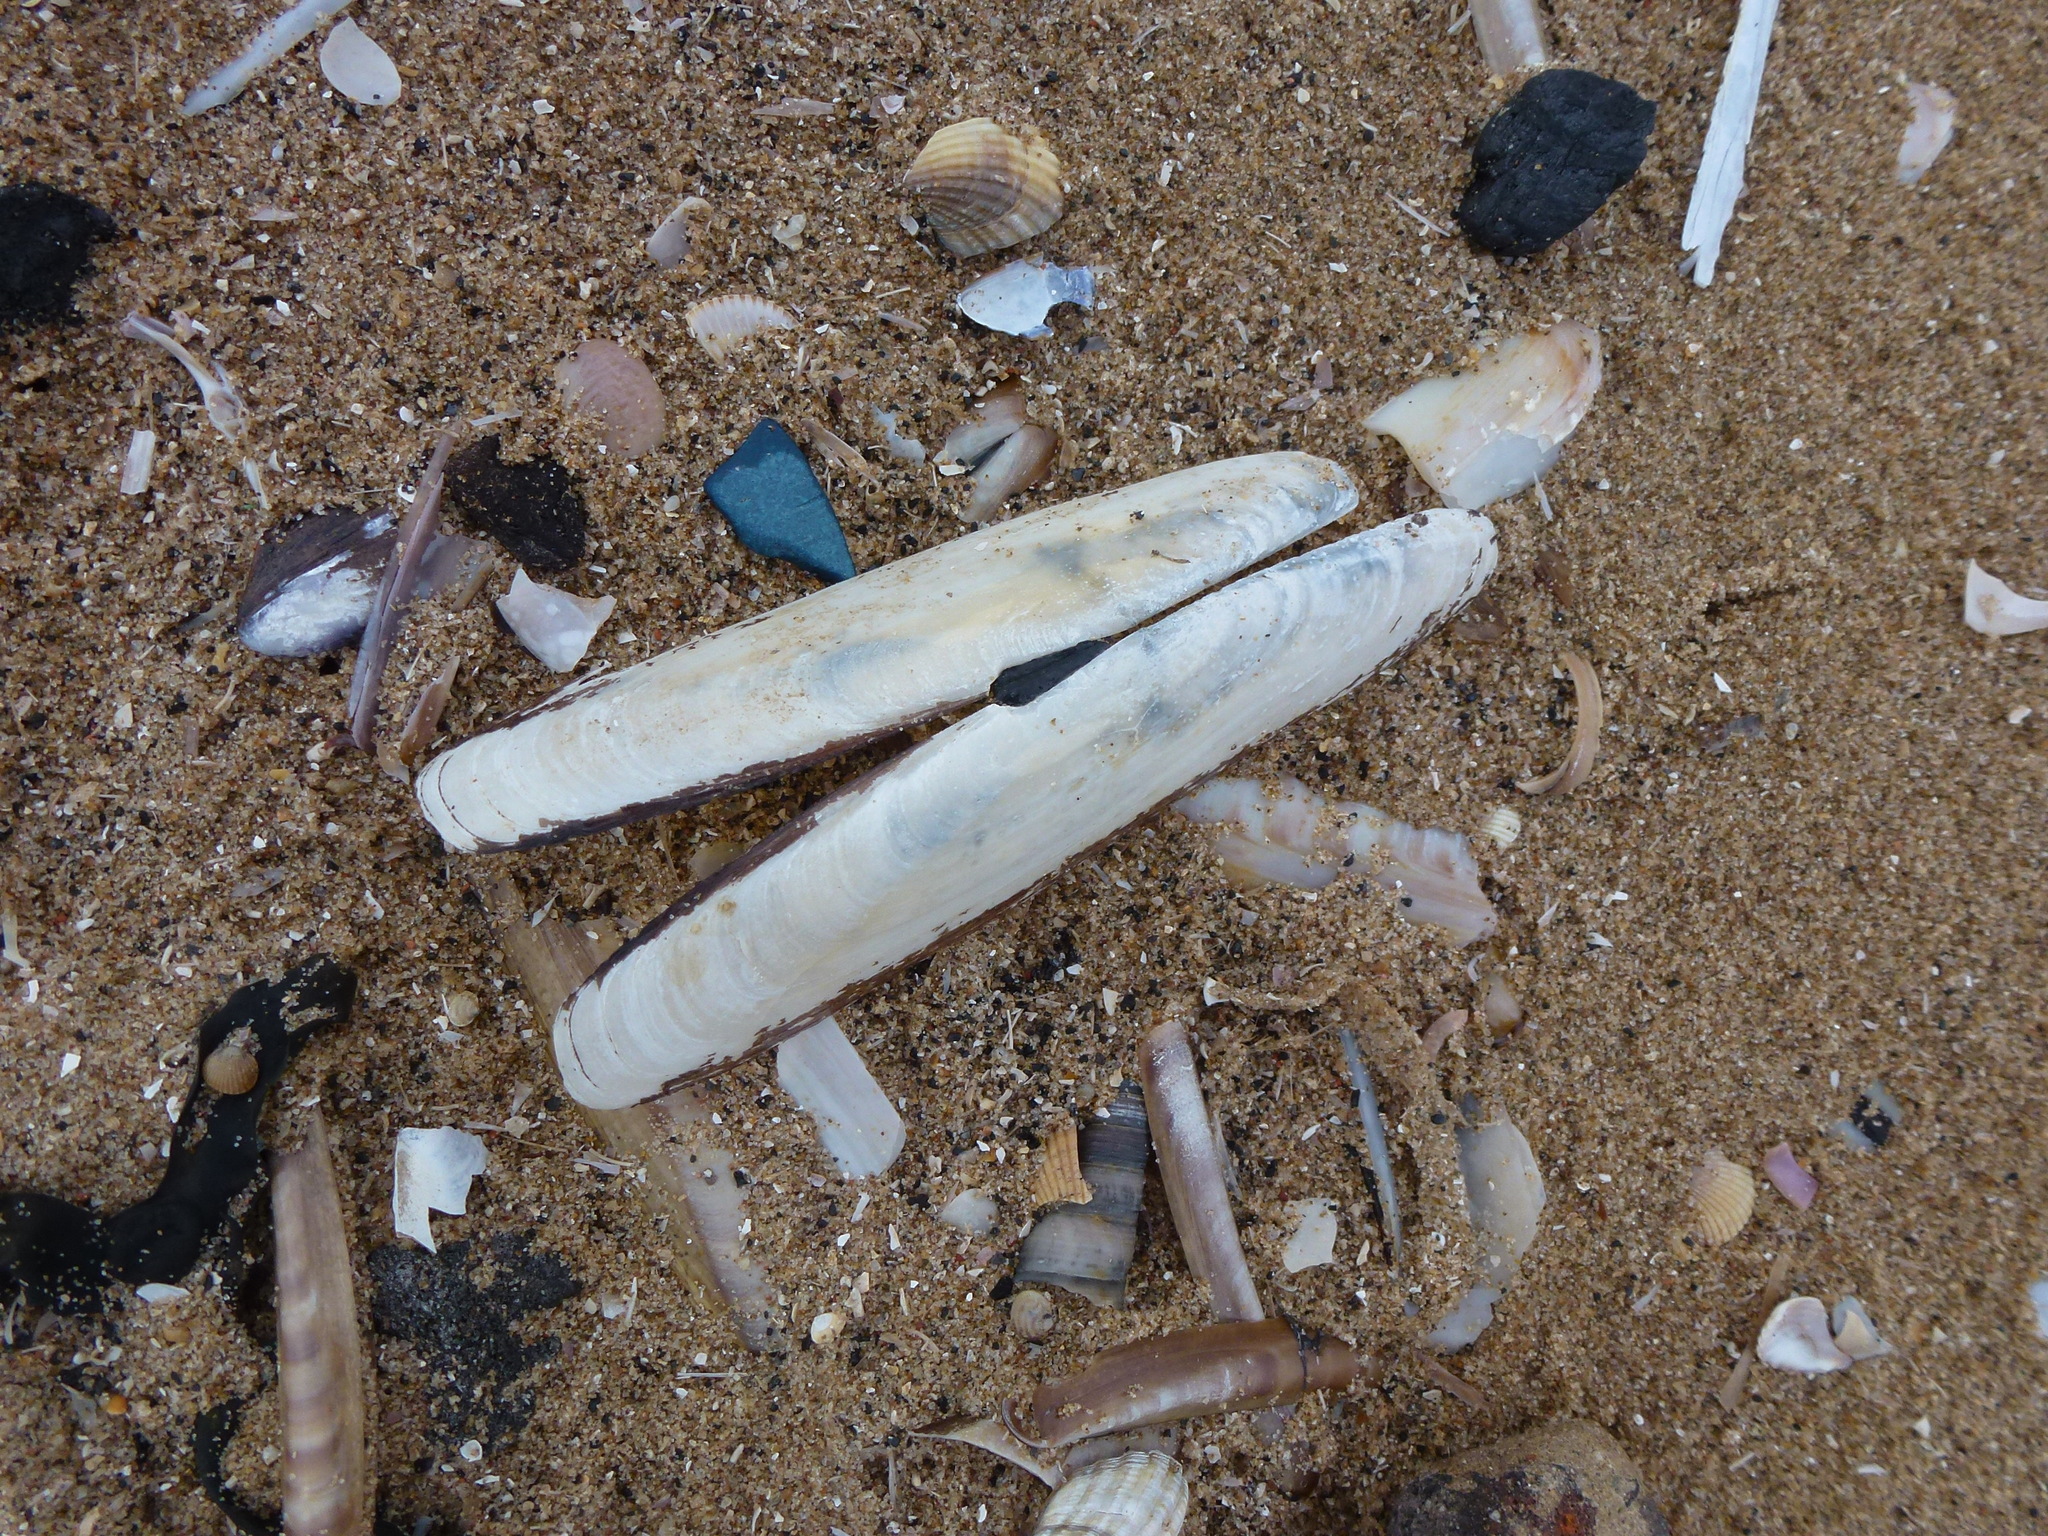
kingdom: Animalia
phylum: Mollusca
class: Bivalvia
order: Adapedonta
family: Pharidae
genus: Pharus
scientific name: Pharus legumen
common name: Bean razor clam
